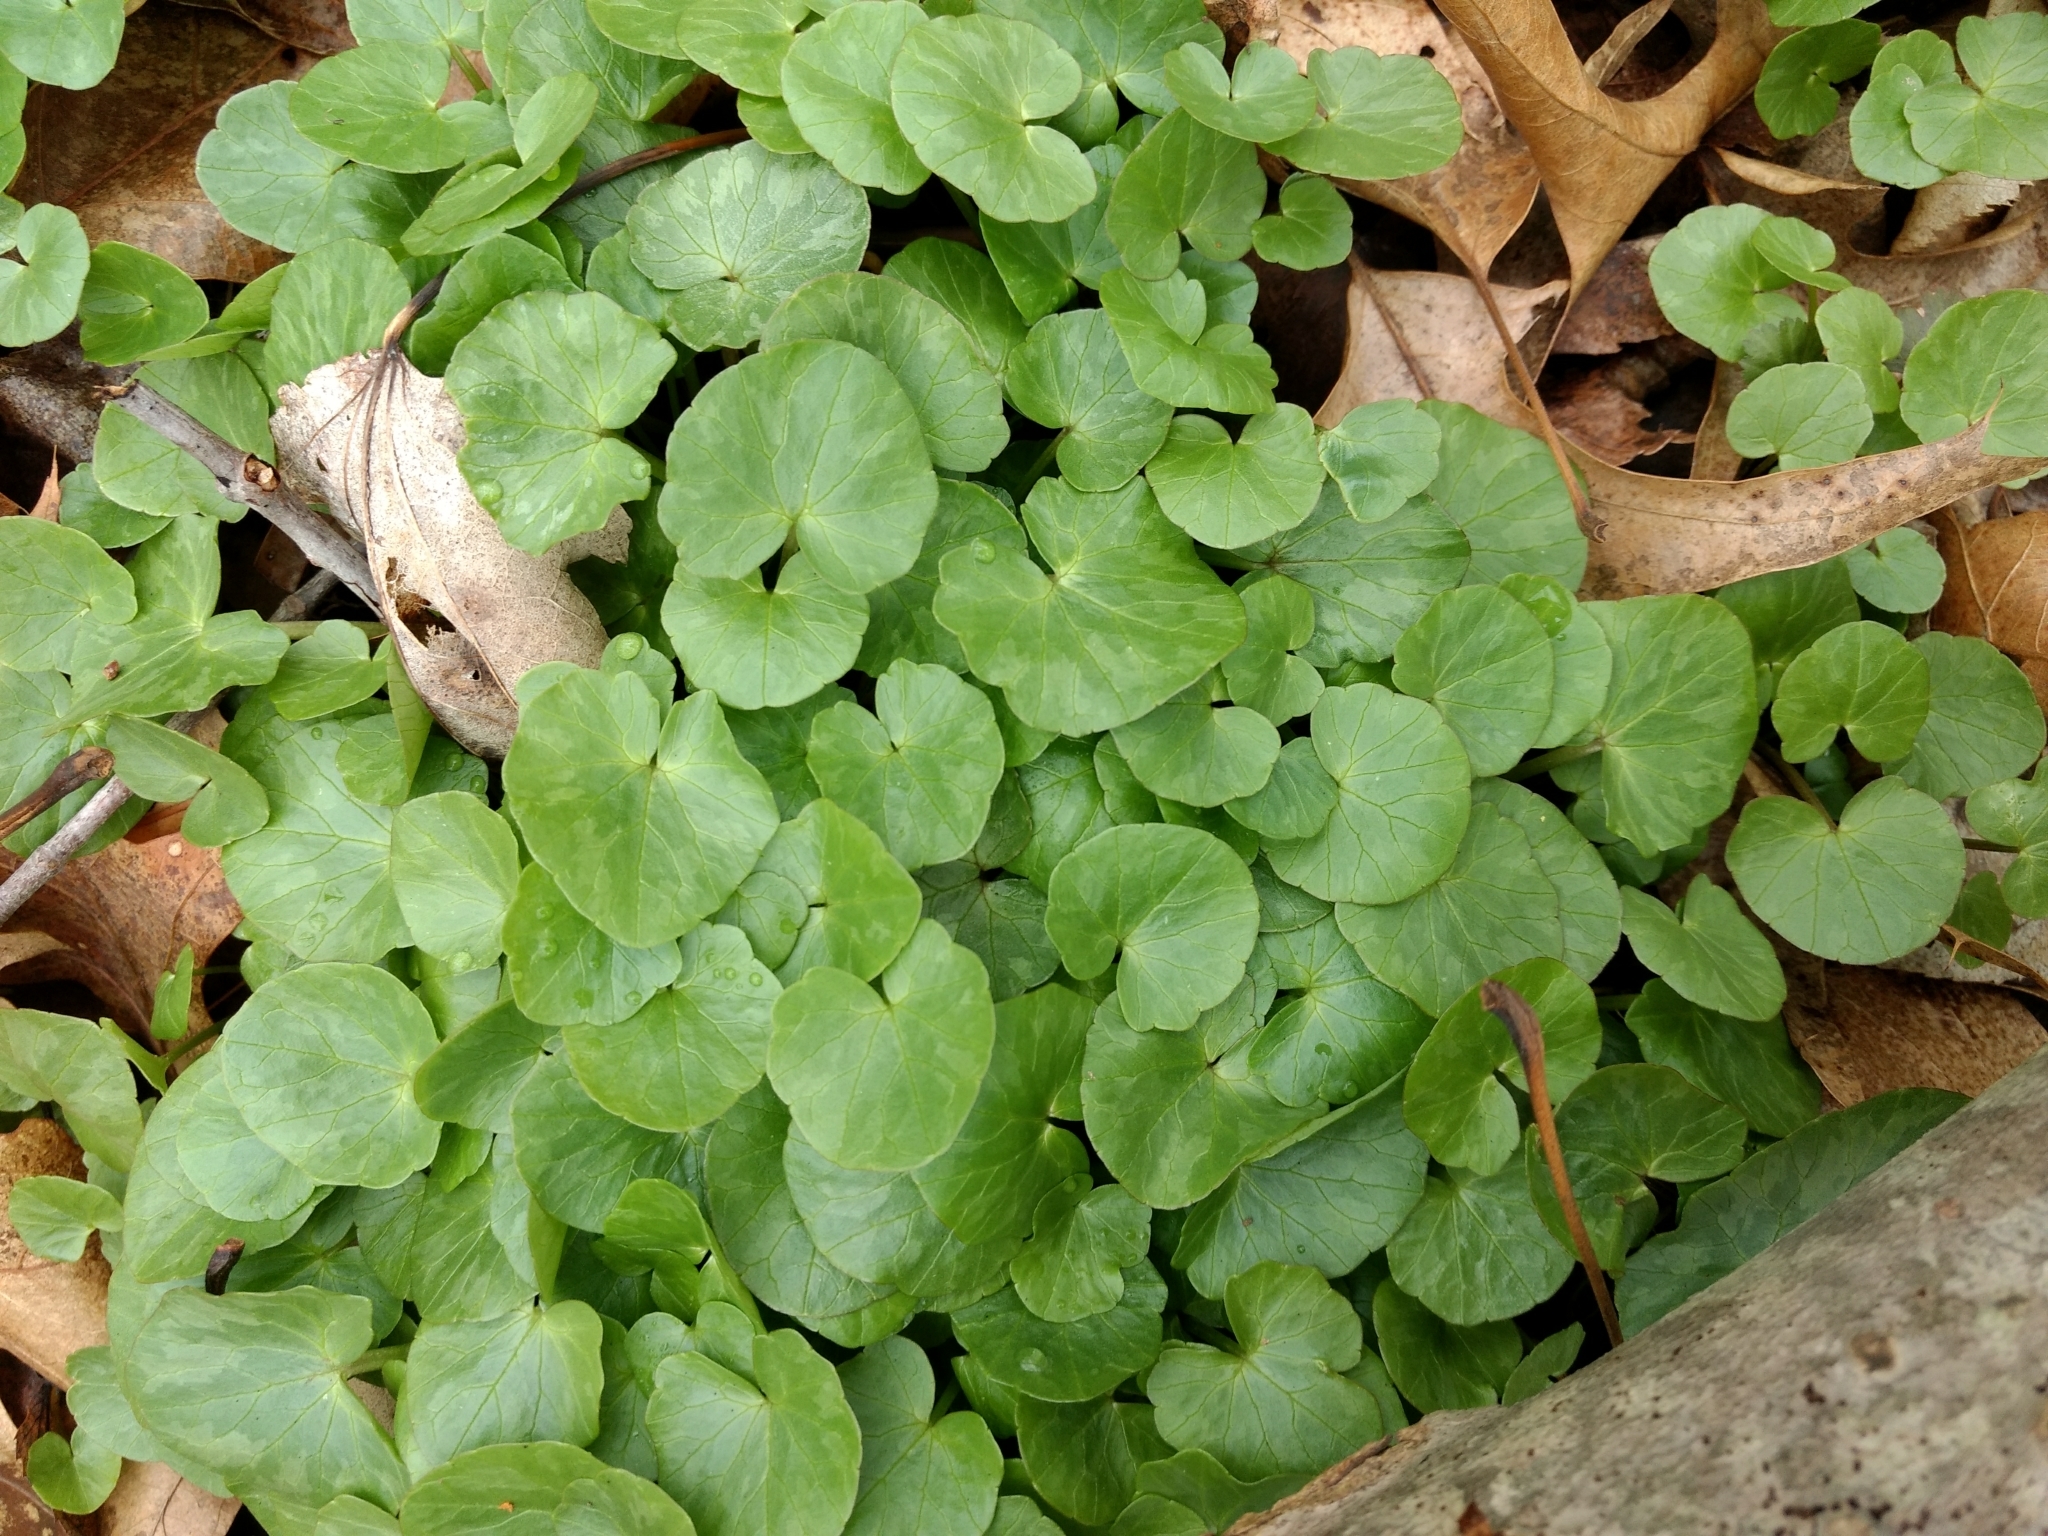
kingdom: Plantae
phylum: Tracheophyta
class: Magnoliopsida
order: Ranunculales
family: Ranunculaceae
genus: Ficaria
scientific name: Ficaria verna
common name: Lesser celandine
